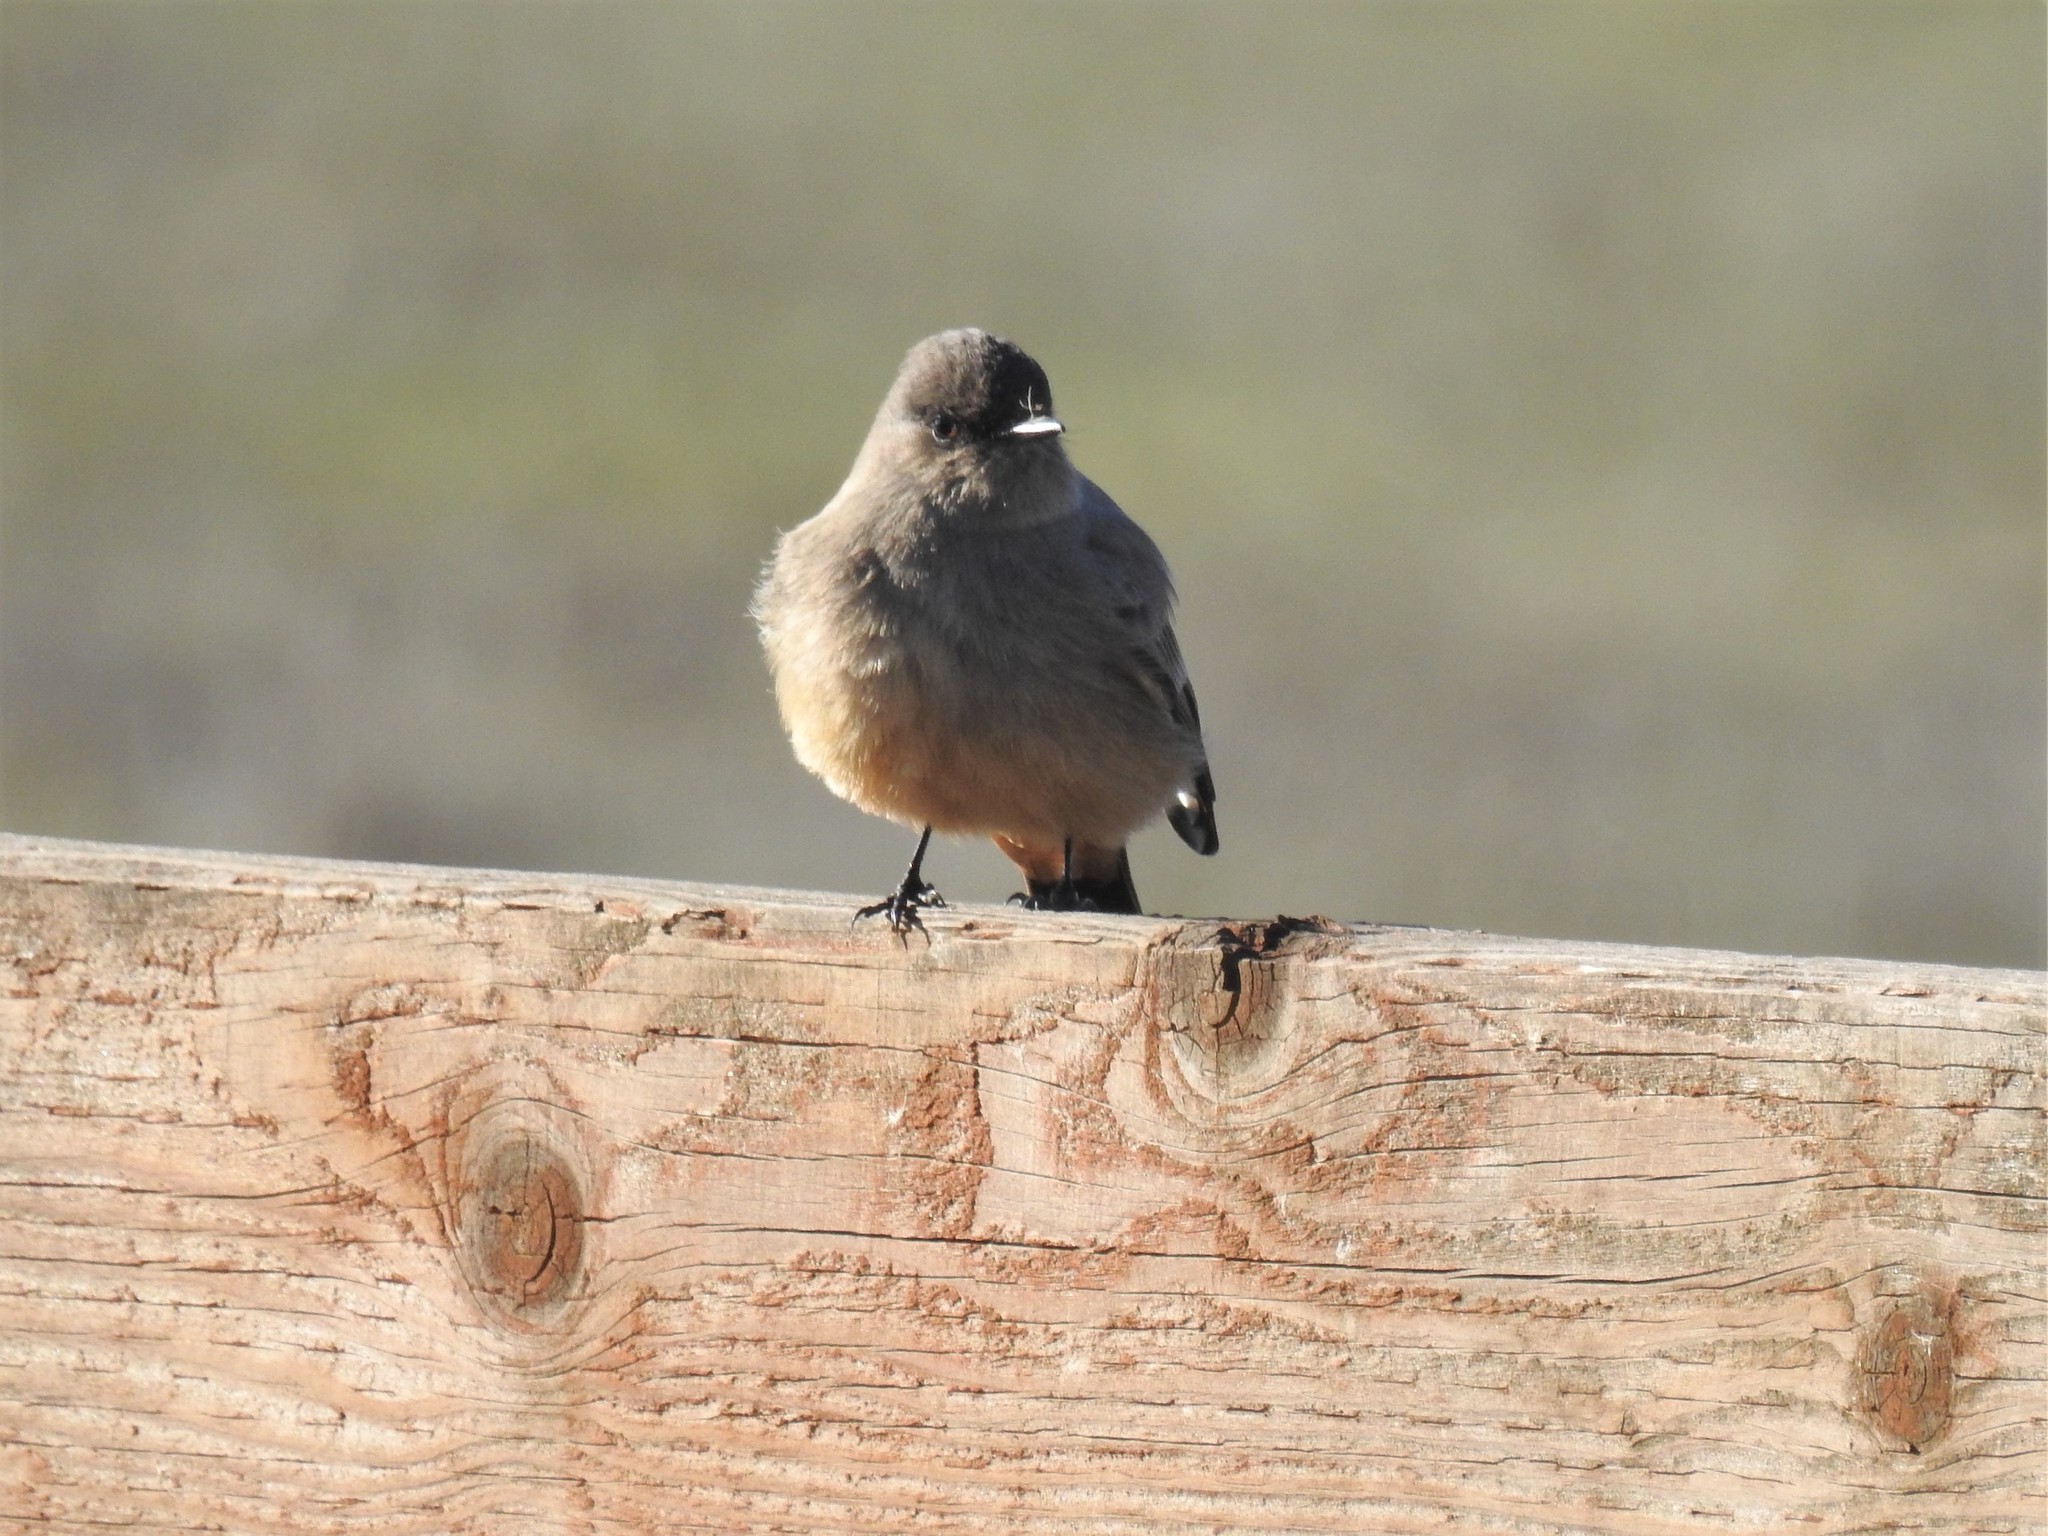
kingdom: Animalia
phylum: Chordata
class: Aves
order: Passeriformes
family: Tyrannidae
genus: Sayornis
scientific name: Sayornis saya
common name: Say's phoebe
